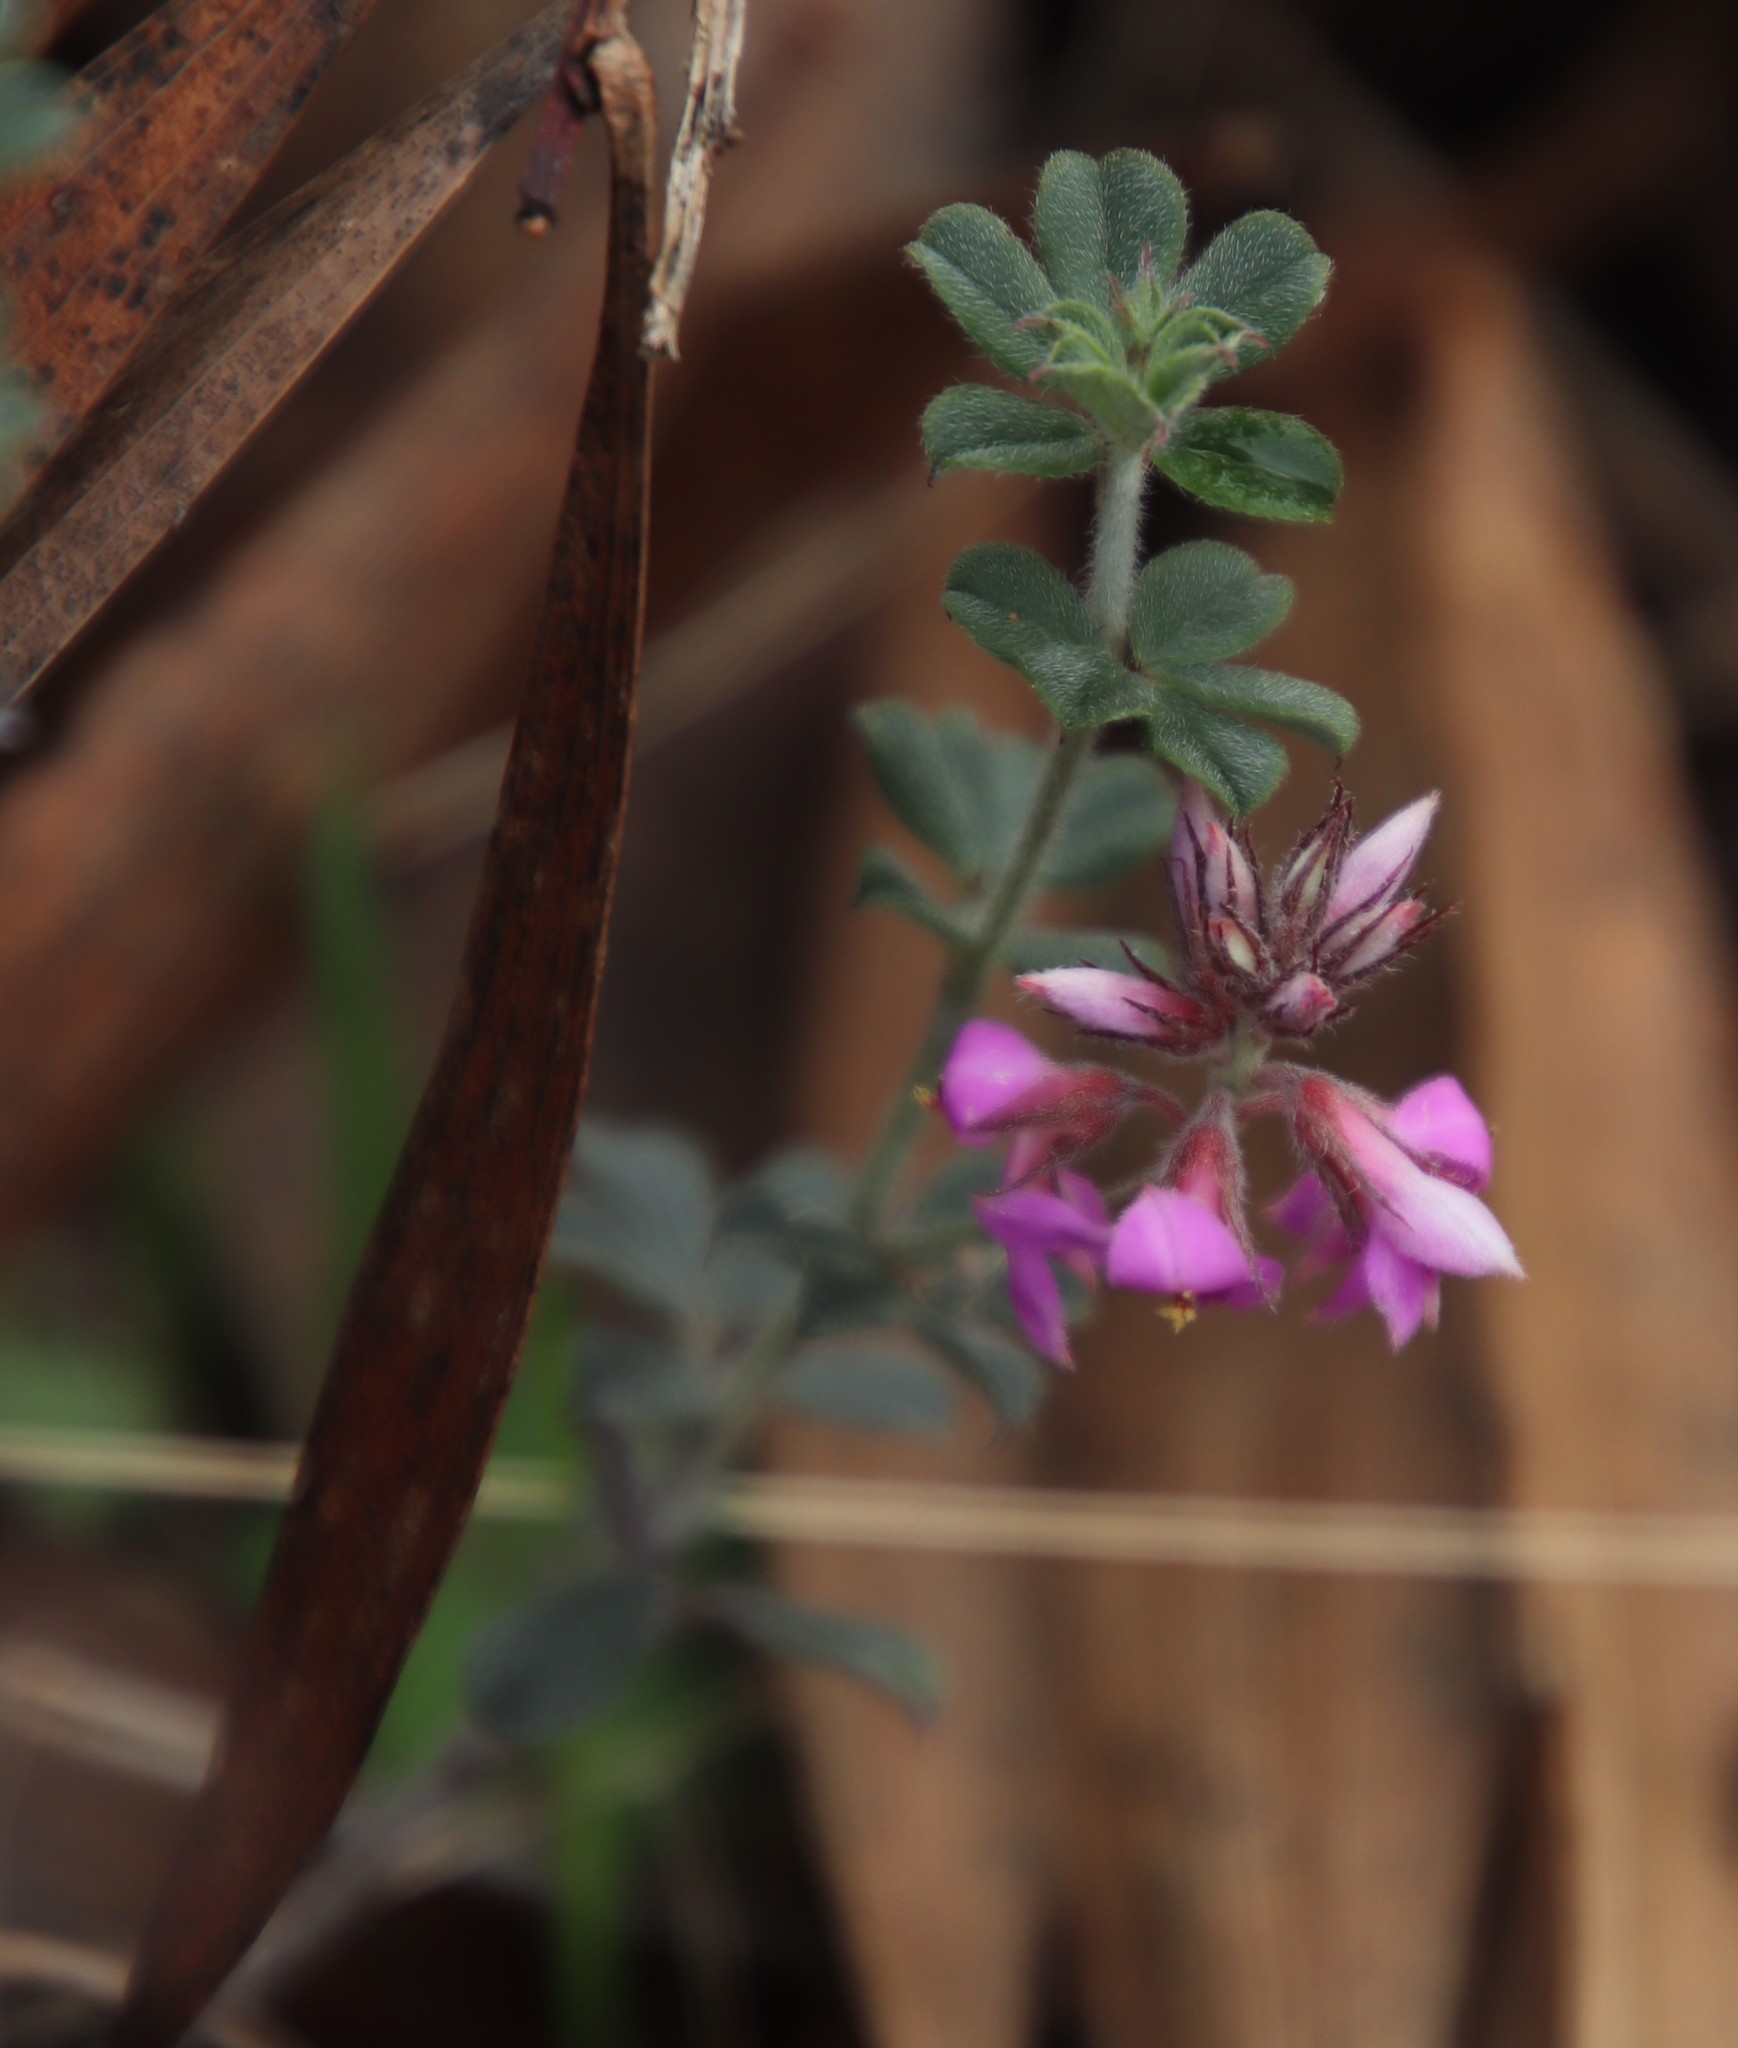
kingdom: Plantae
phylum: Tracheophyta
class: Magnoliopsida
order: Fabales
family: Fabaceae
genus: Indigofera
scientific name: Indigofera mauritanica
